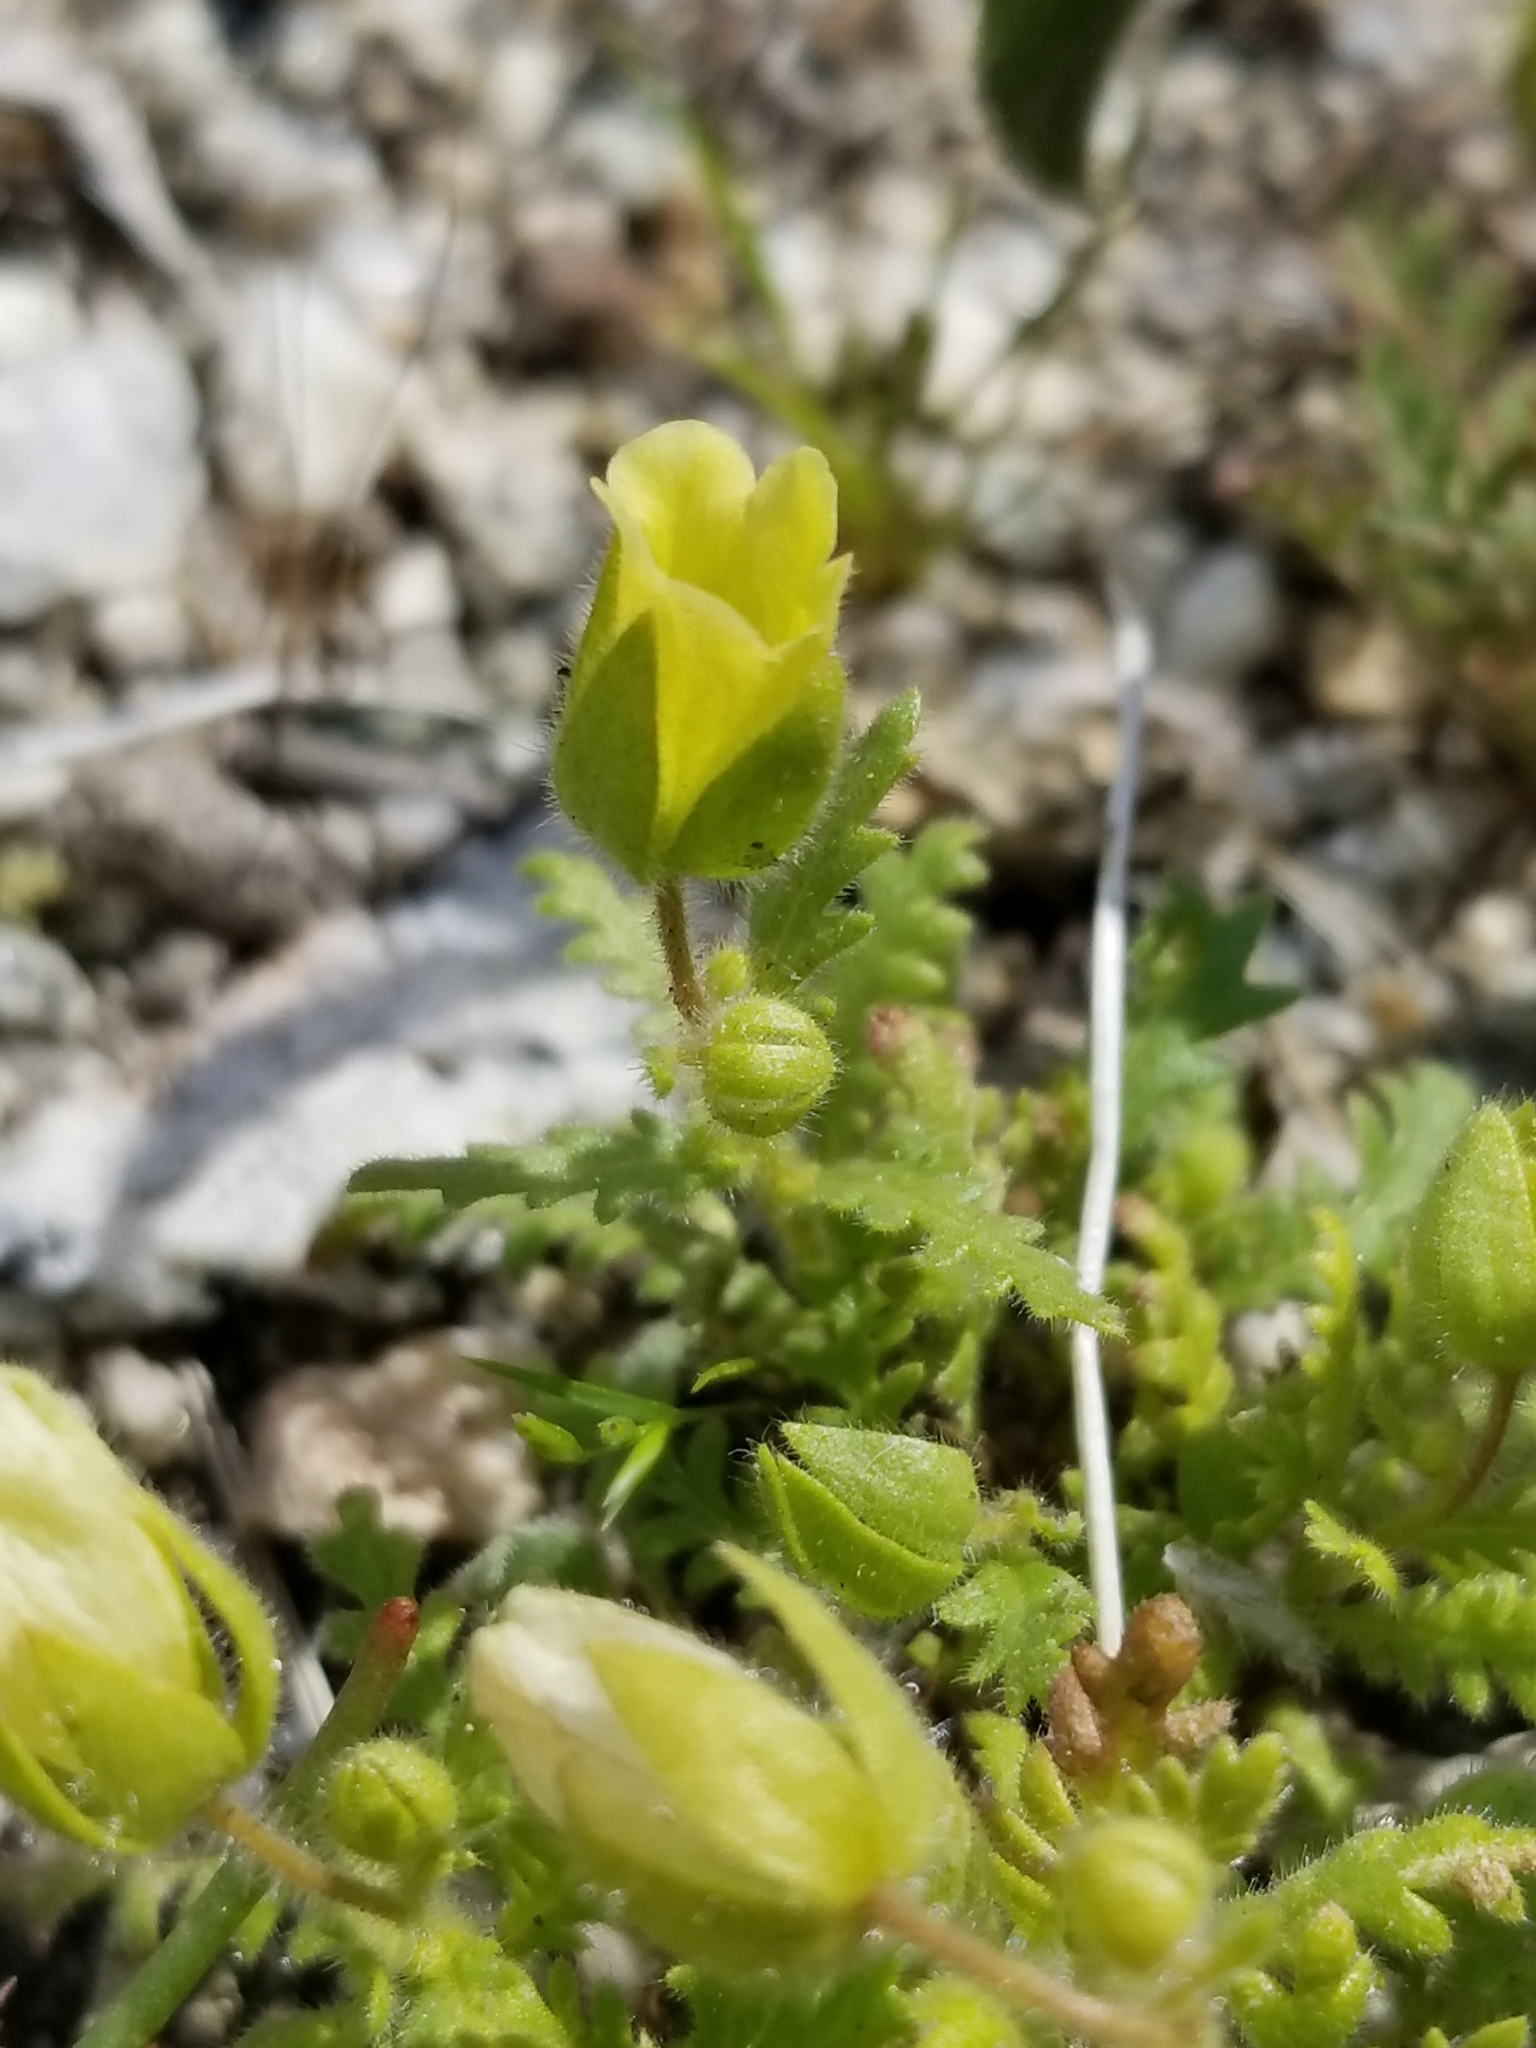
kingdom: Plantae
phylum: Tracheophyta
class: Magnoliopsida
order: Boraginales
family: Hydrophyllaceae
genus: Emmenanthe
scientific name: Emmenanthe penduliflora
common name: Whispering-bells
